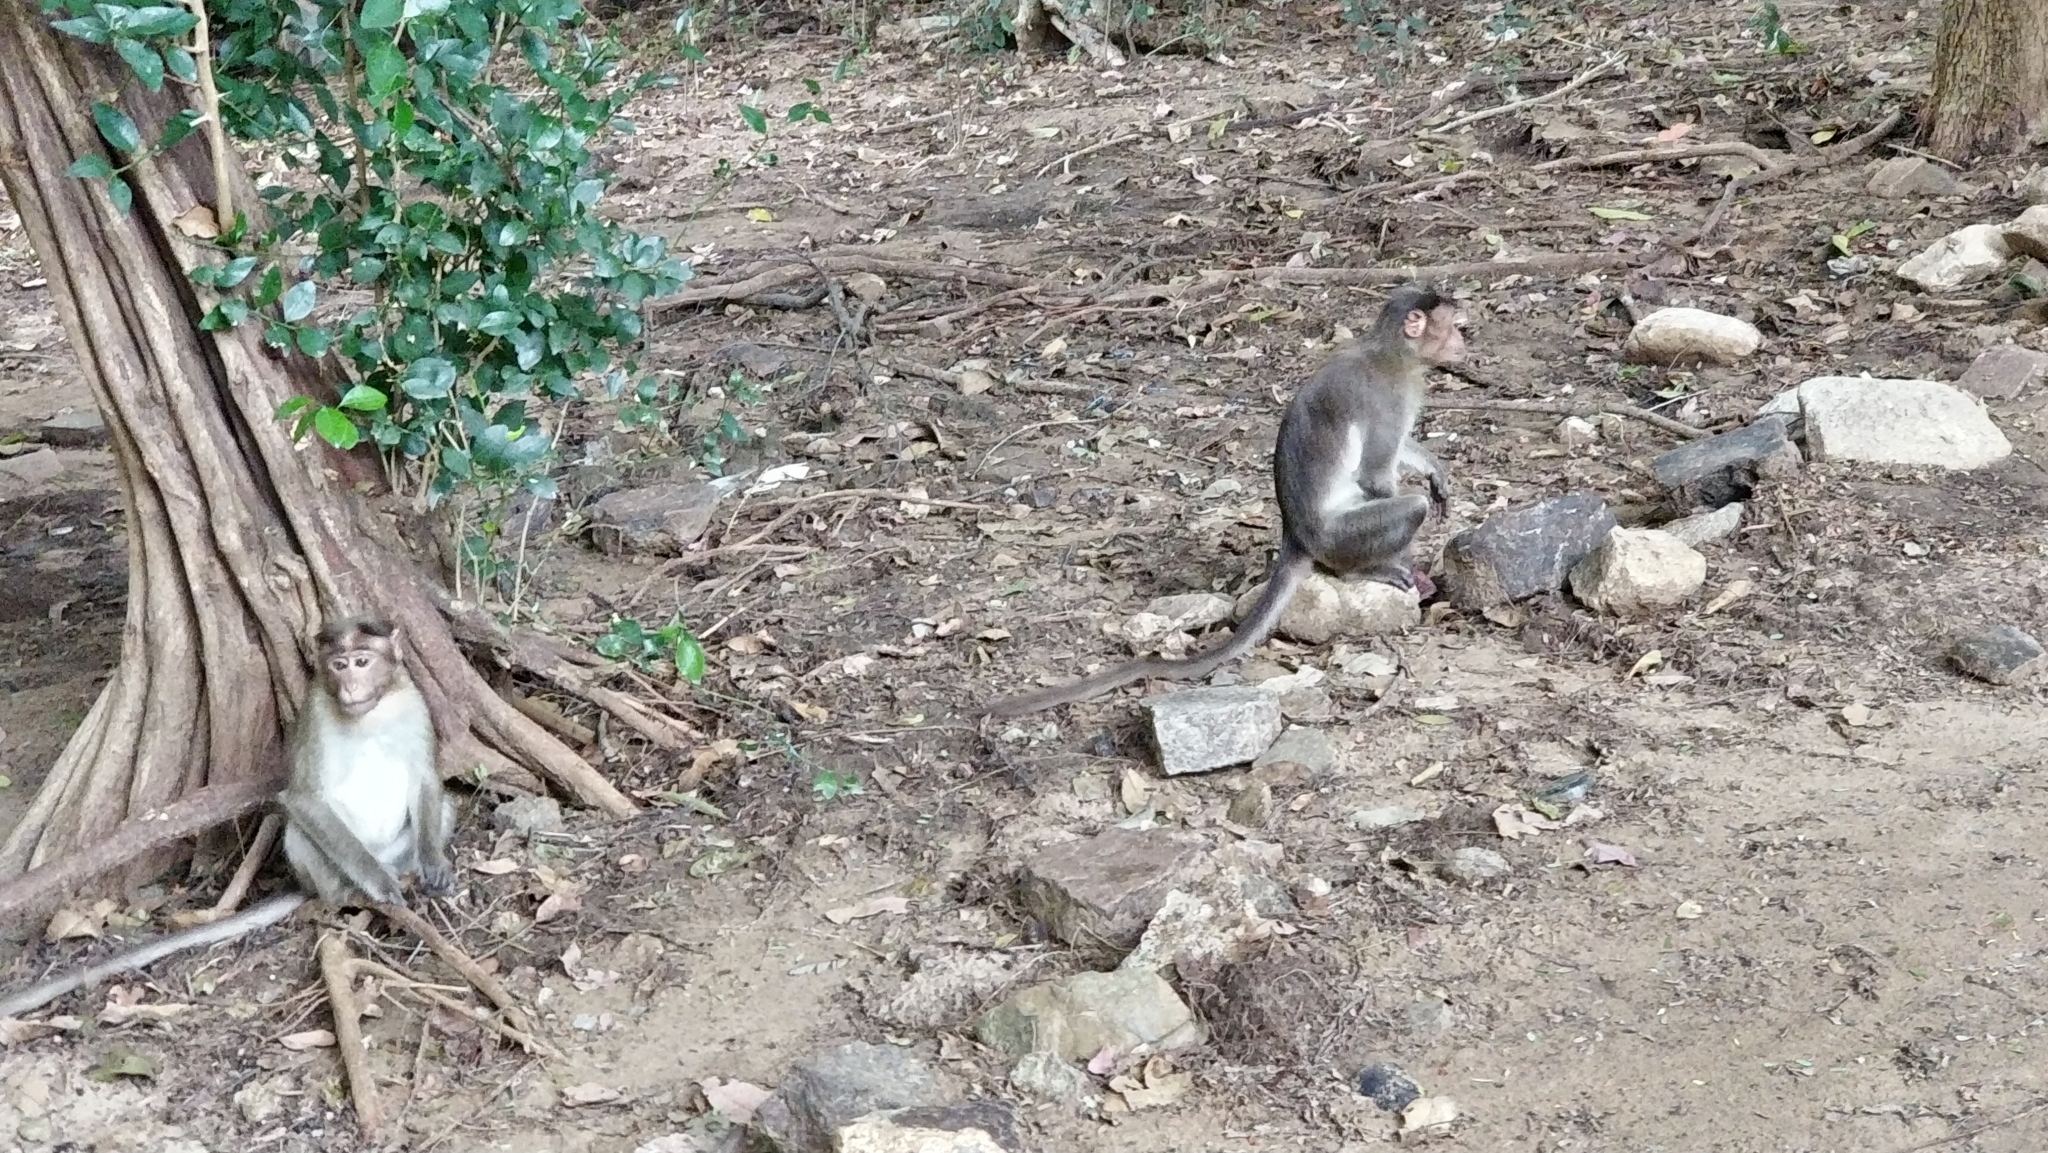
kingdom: Animalia
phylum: Chordata
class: Mammalia
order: Primates
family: Cercopithecidae
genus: Macaca
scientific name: Macaca radiata
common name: Bonnet macaque
